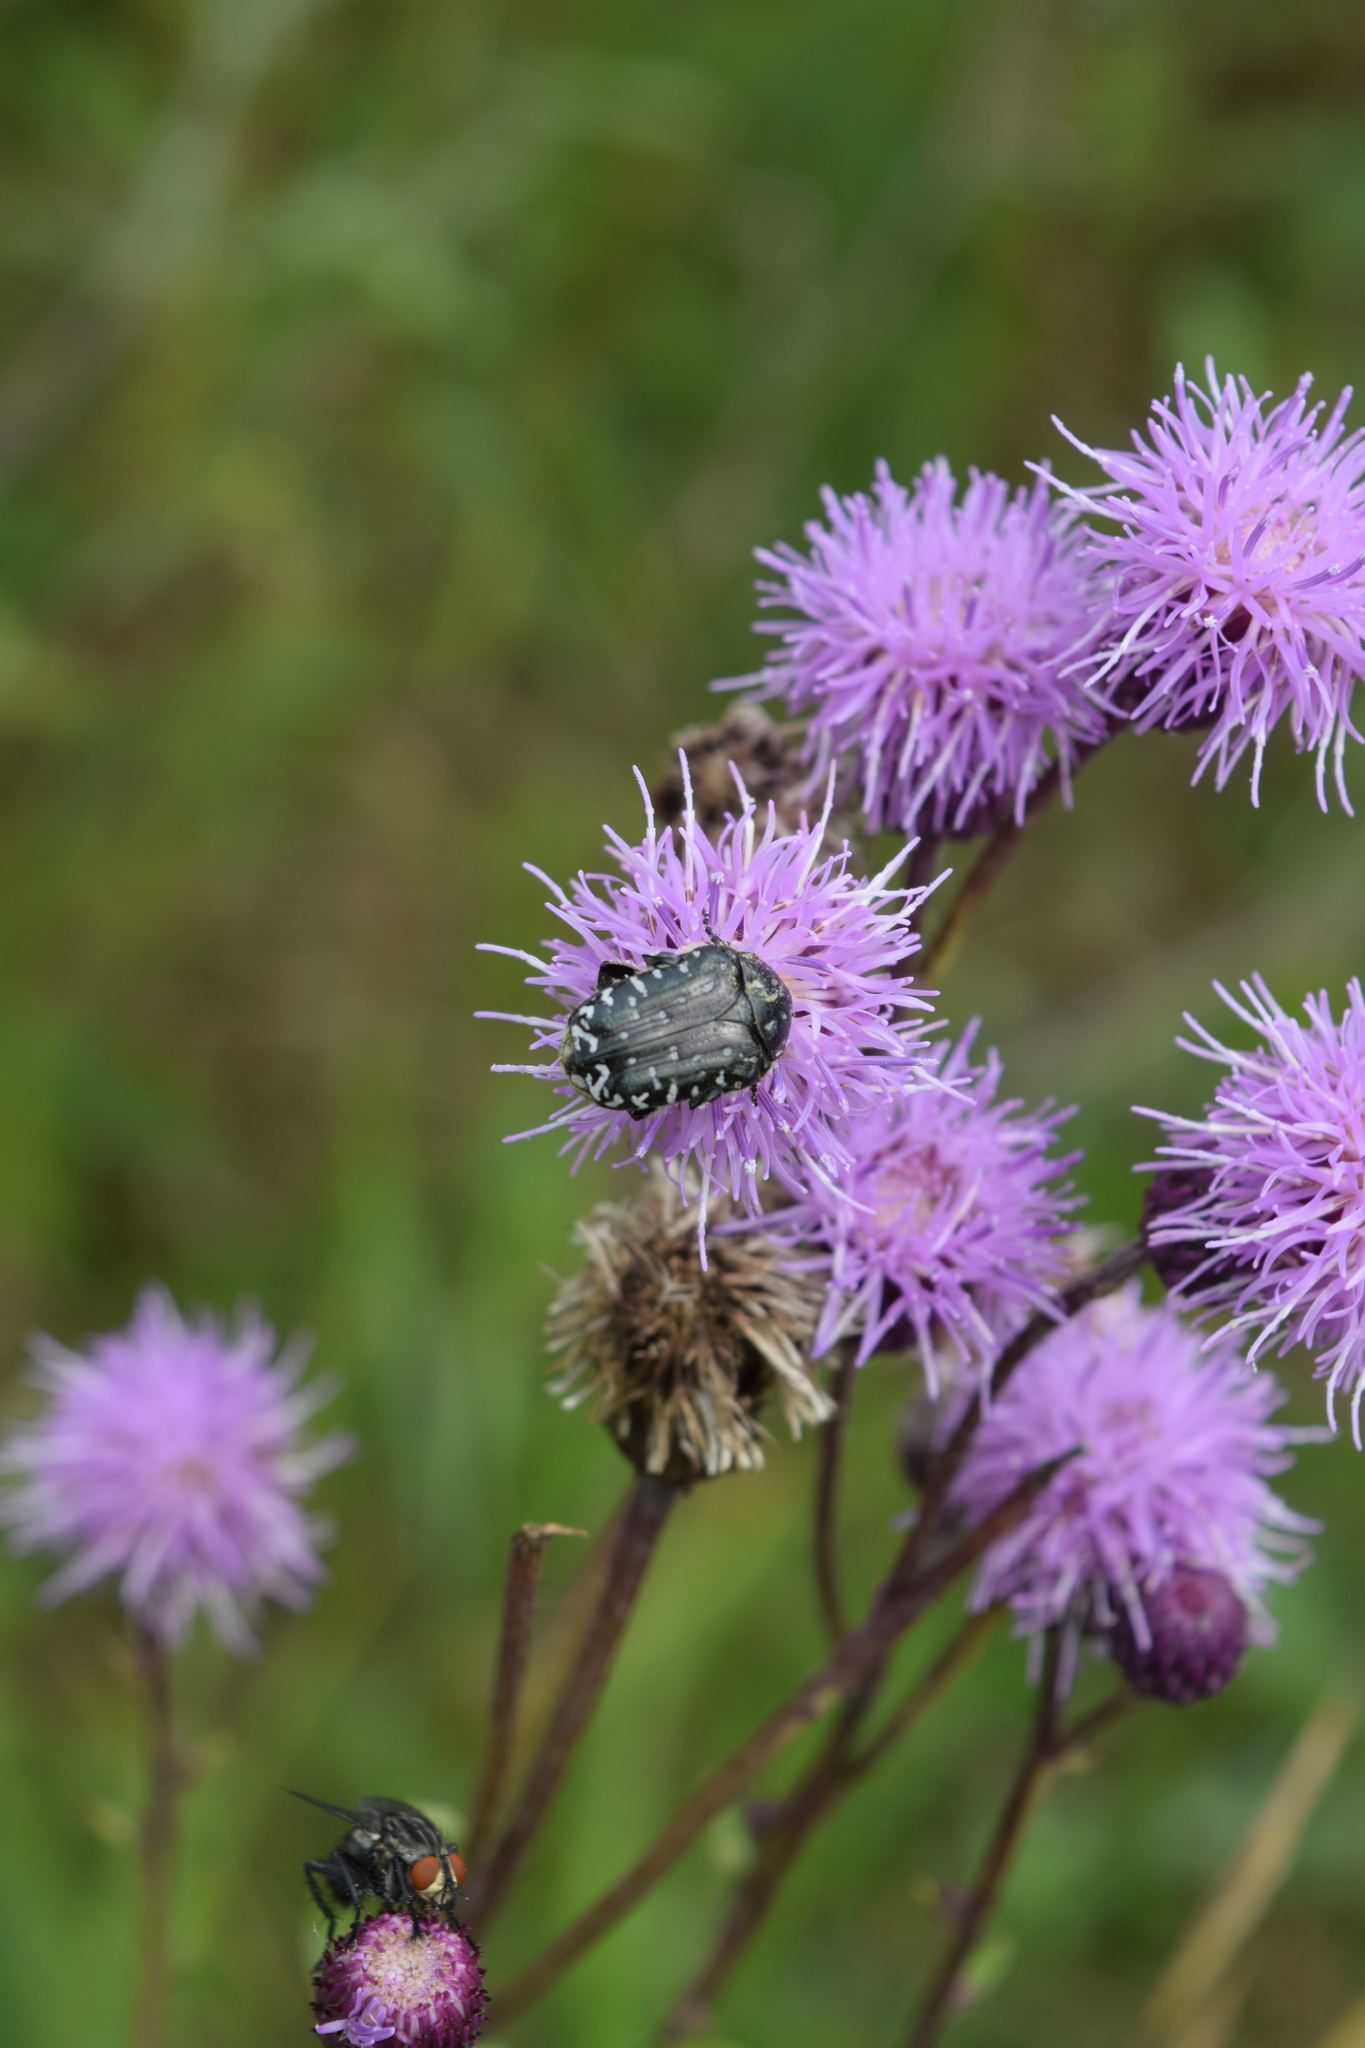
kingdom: Animalia
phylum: Arthropoda
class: Insecta
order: Coleoptera
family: Scarabaeidae
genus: Oxythyrea
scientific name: Oxythyrea funesta
